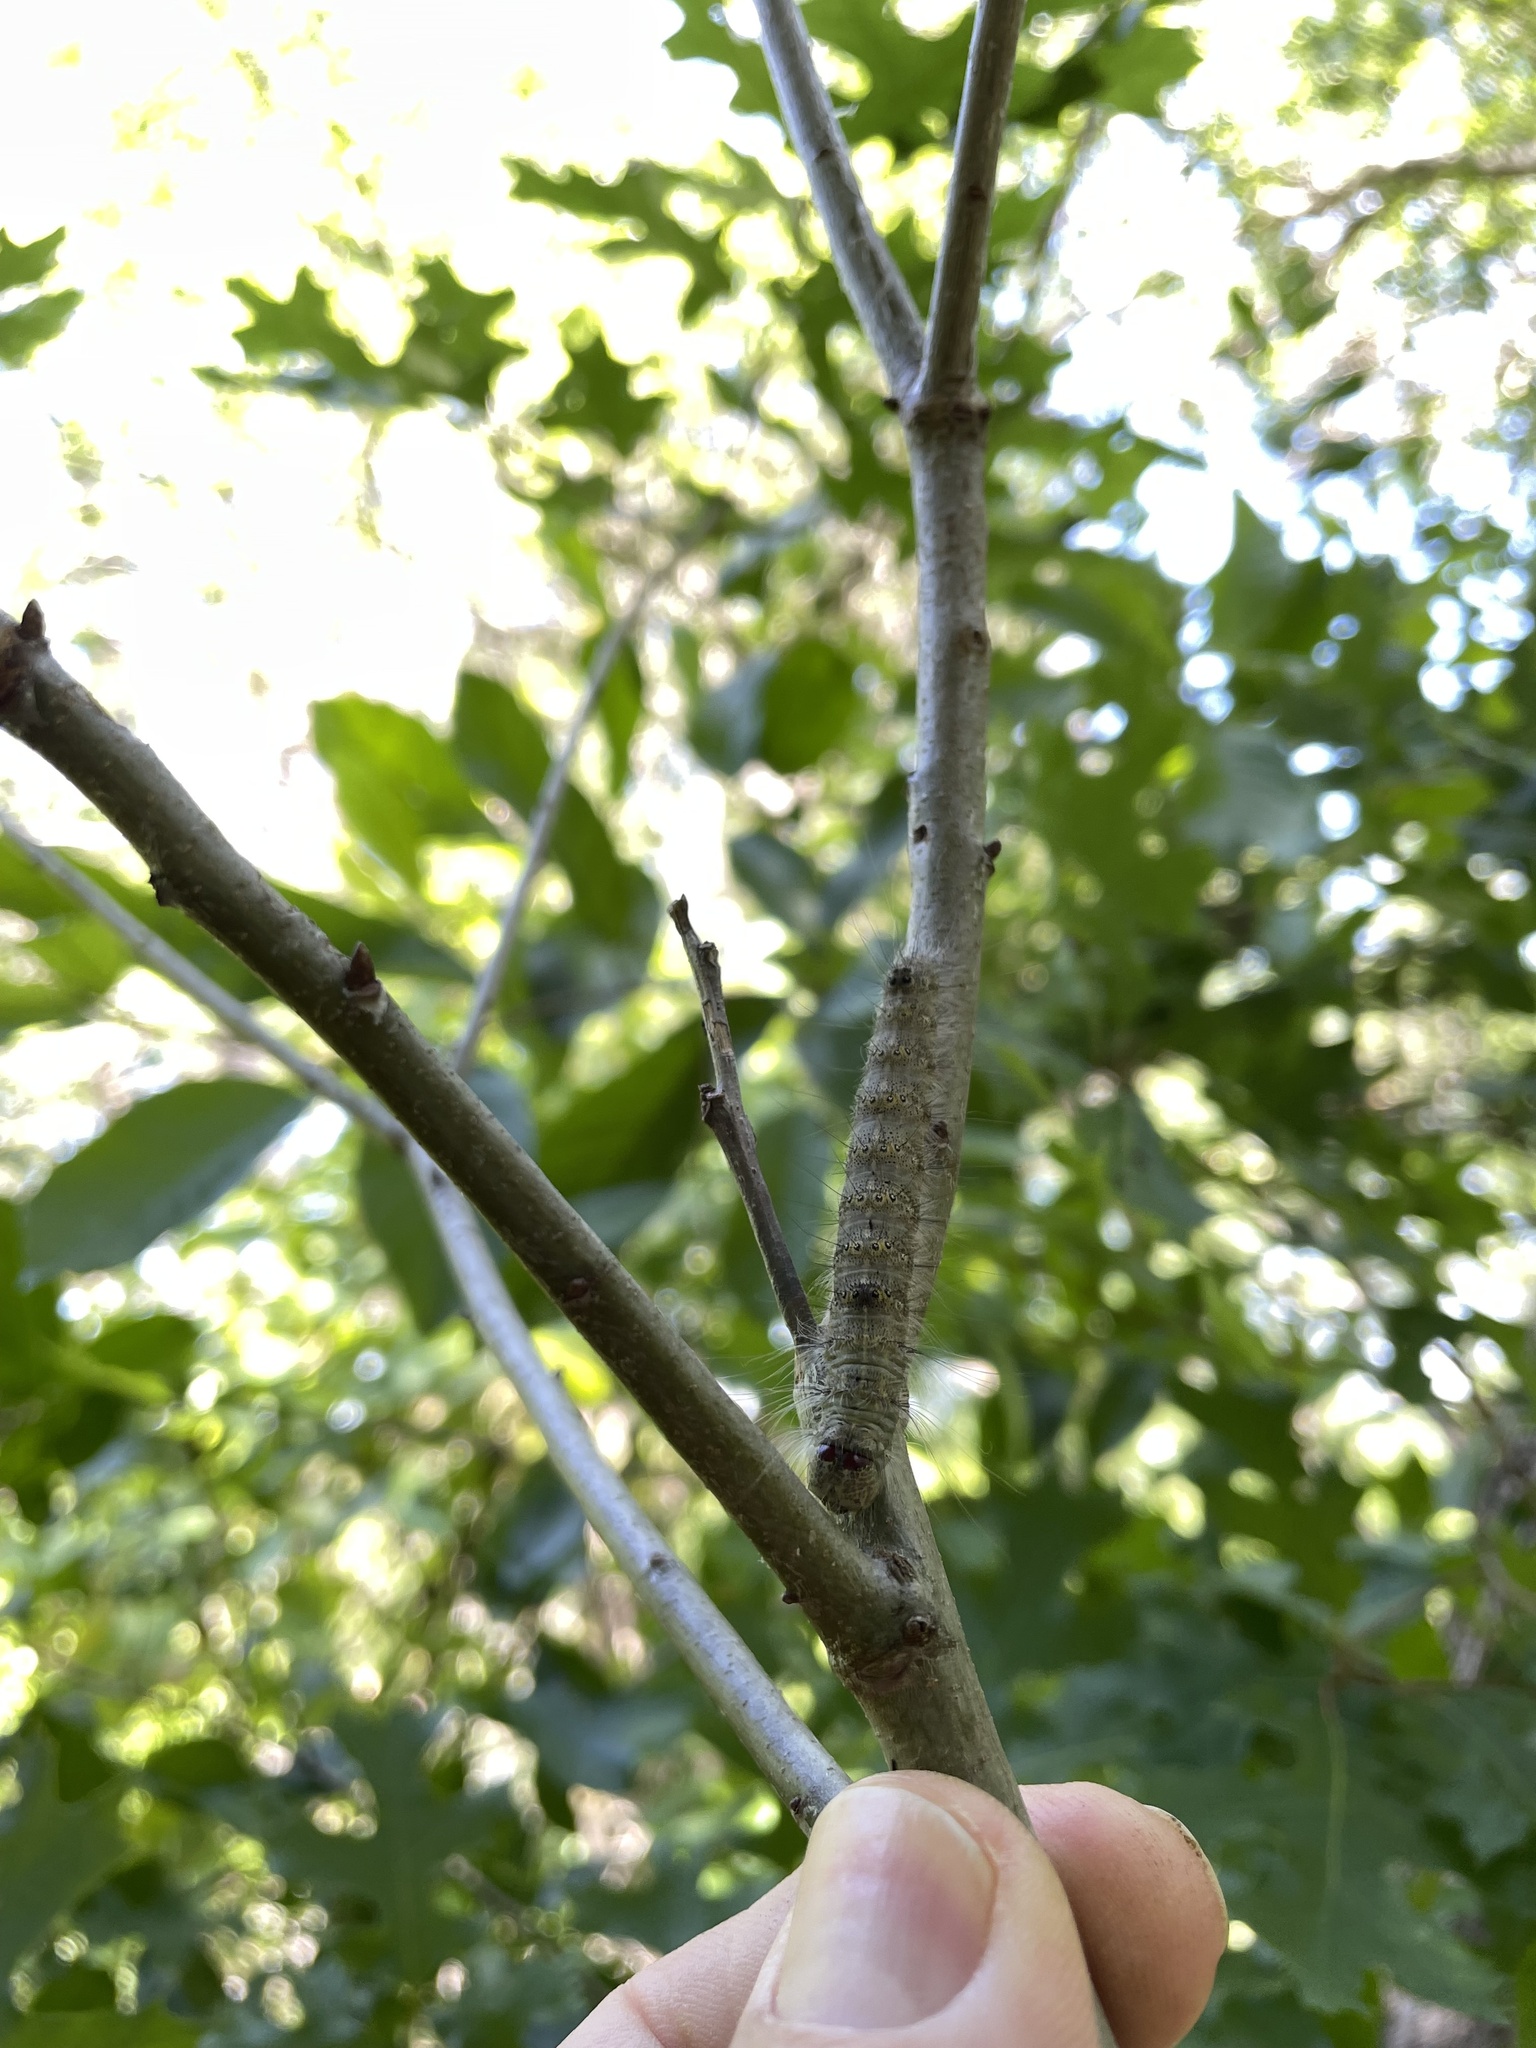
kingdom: Animalia
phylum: Arthropoda
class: Insecta
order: Lepidoptera
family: Noctuidae
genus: Acronicta
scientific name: Acronicta lobeliae
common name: Greater oak dagger
